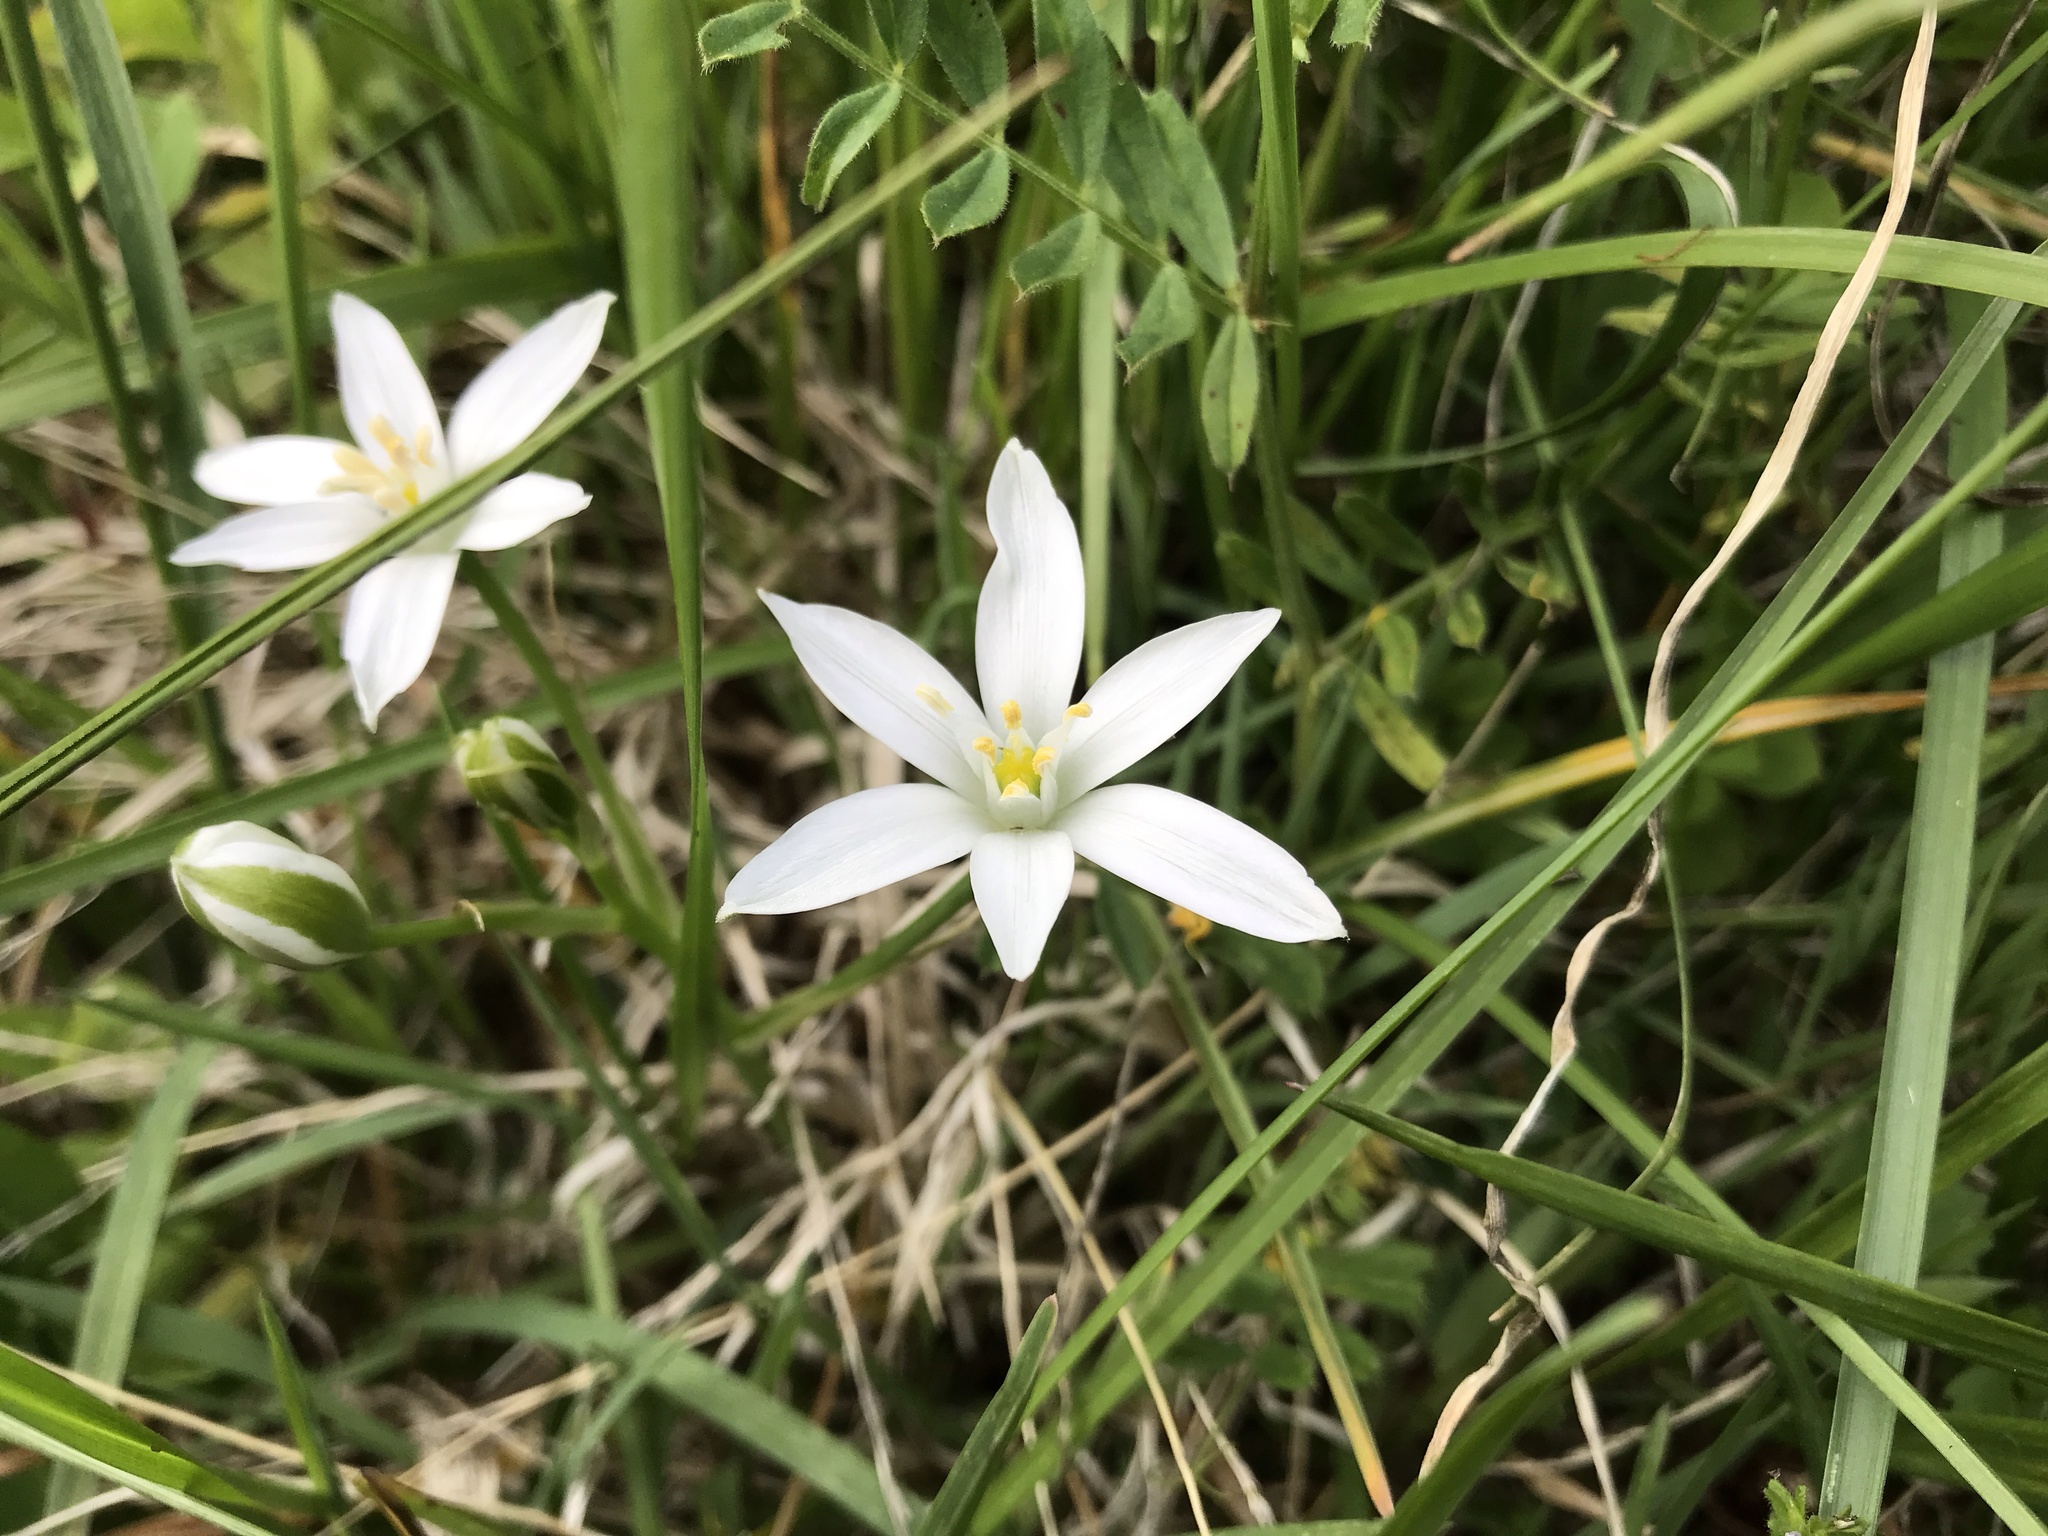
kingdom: Plantae
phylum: Tracheophyta
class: Liliopsida
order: Asparagales
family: Asparagaceae
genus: Ornithogalum
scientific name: Ornithogalum umbellatum
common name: Garden star-of-bethlehem
